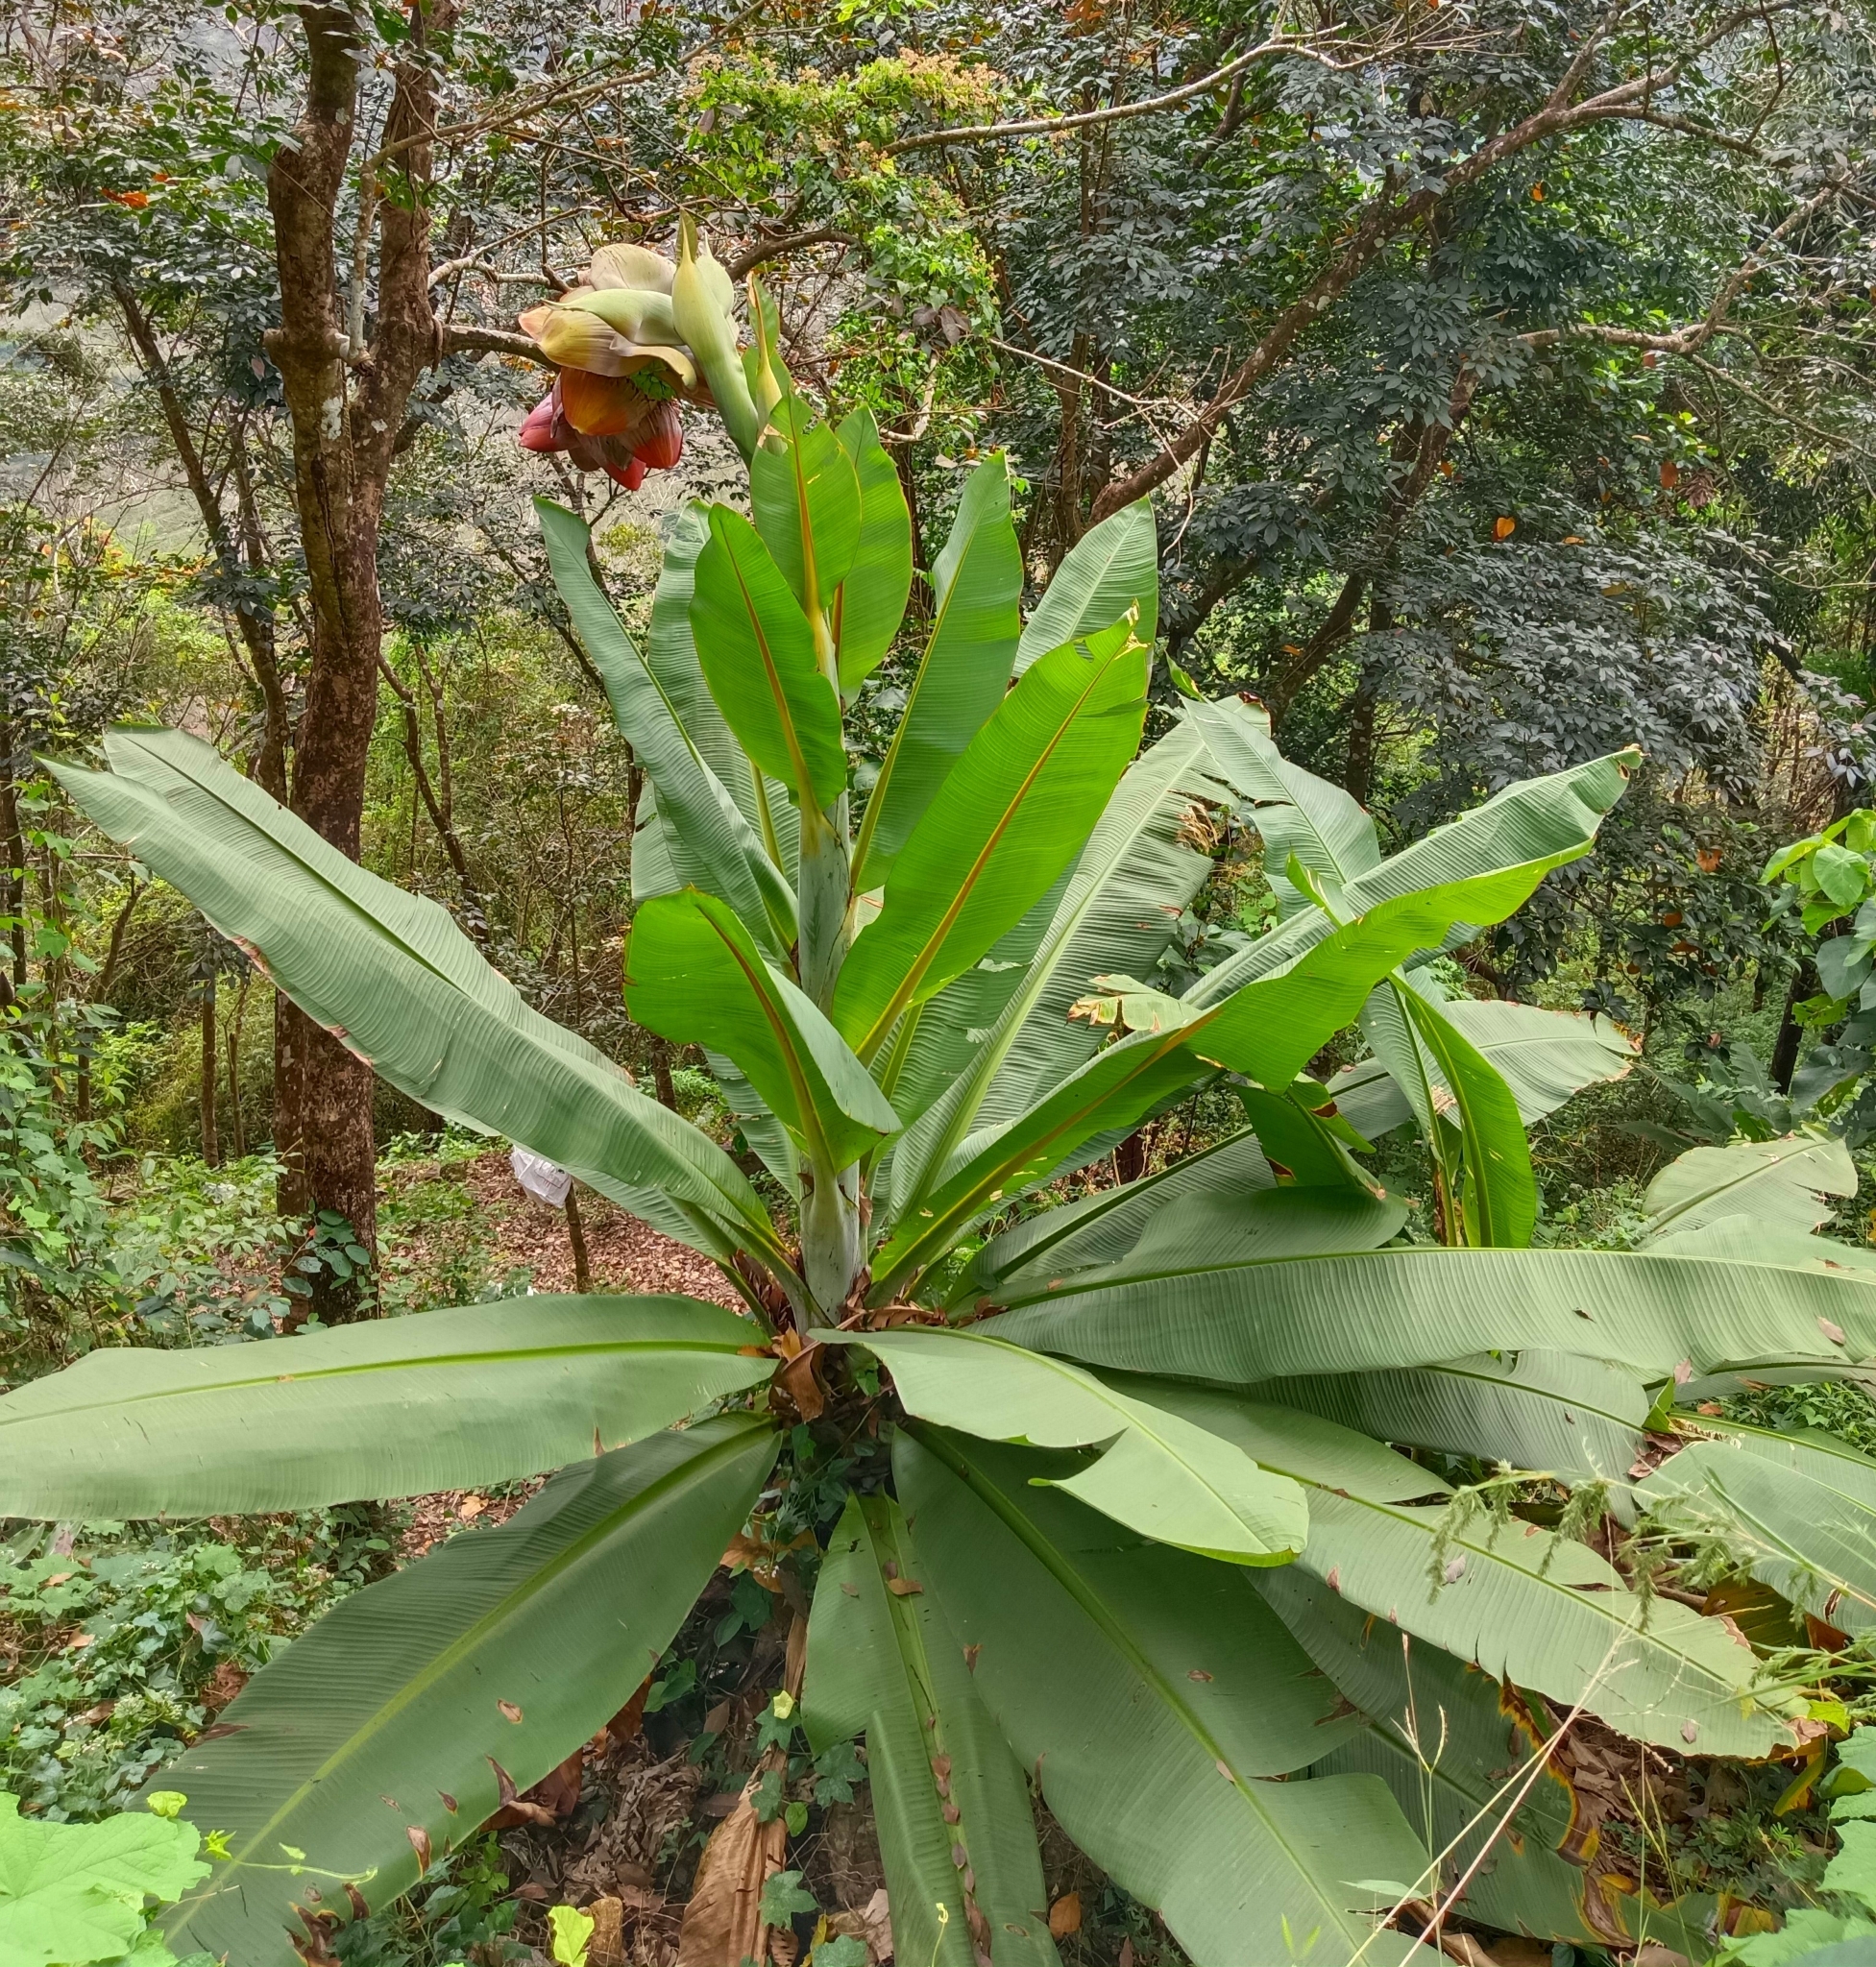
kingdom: Plantae
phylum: Tracheophyta
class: Liliopsida
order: Zingiberales
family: Musaceae
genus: Ensete
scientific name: Ensete superbum
